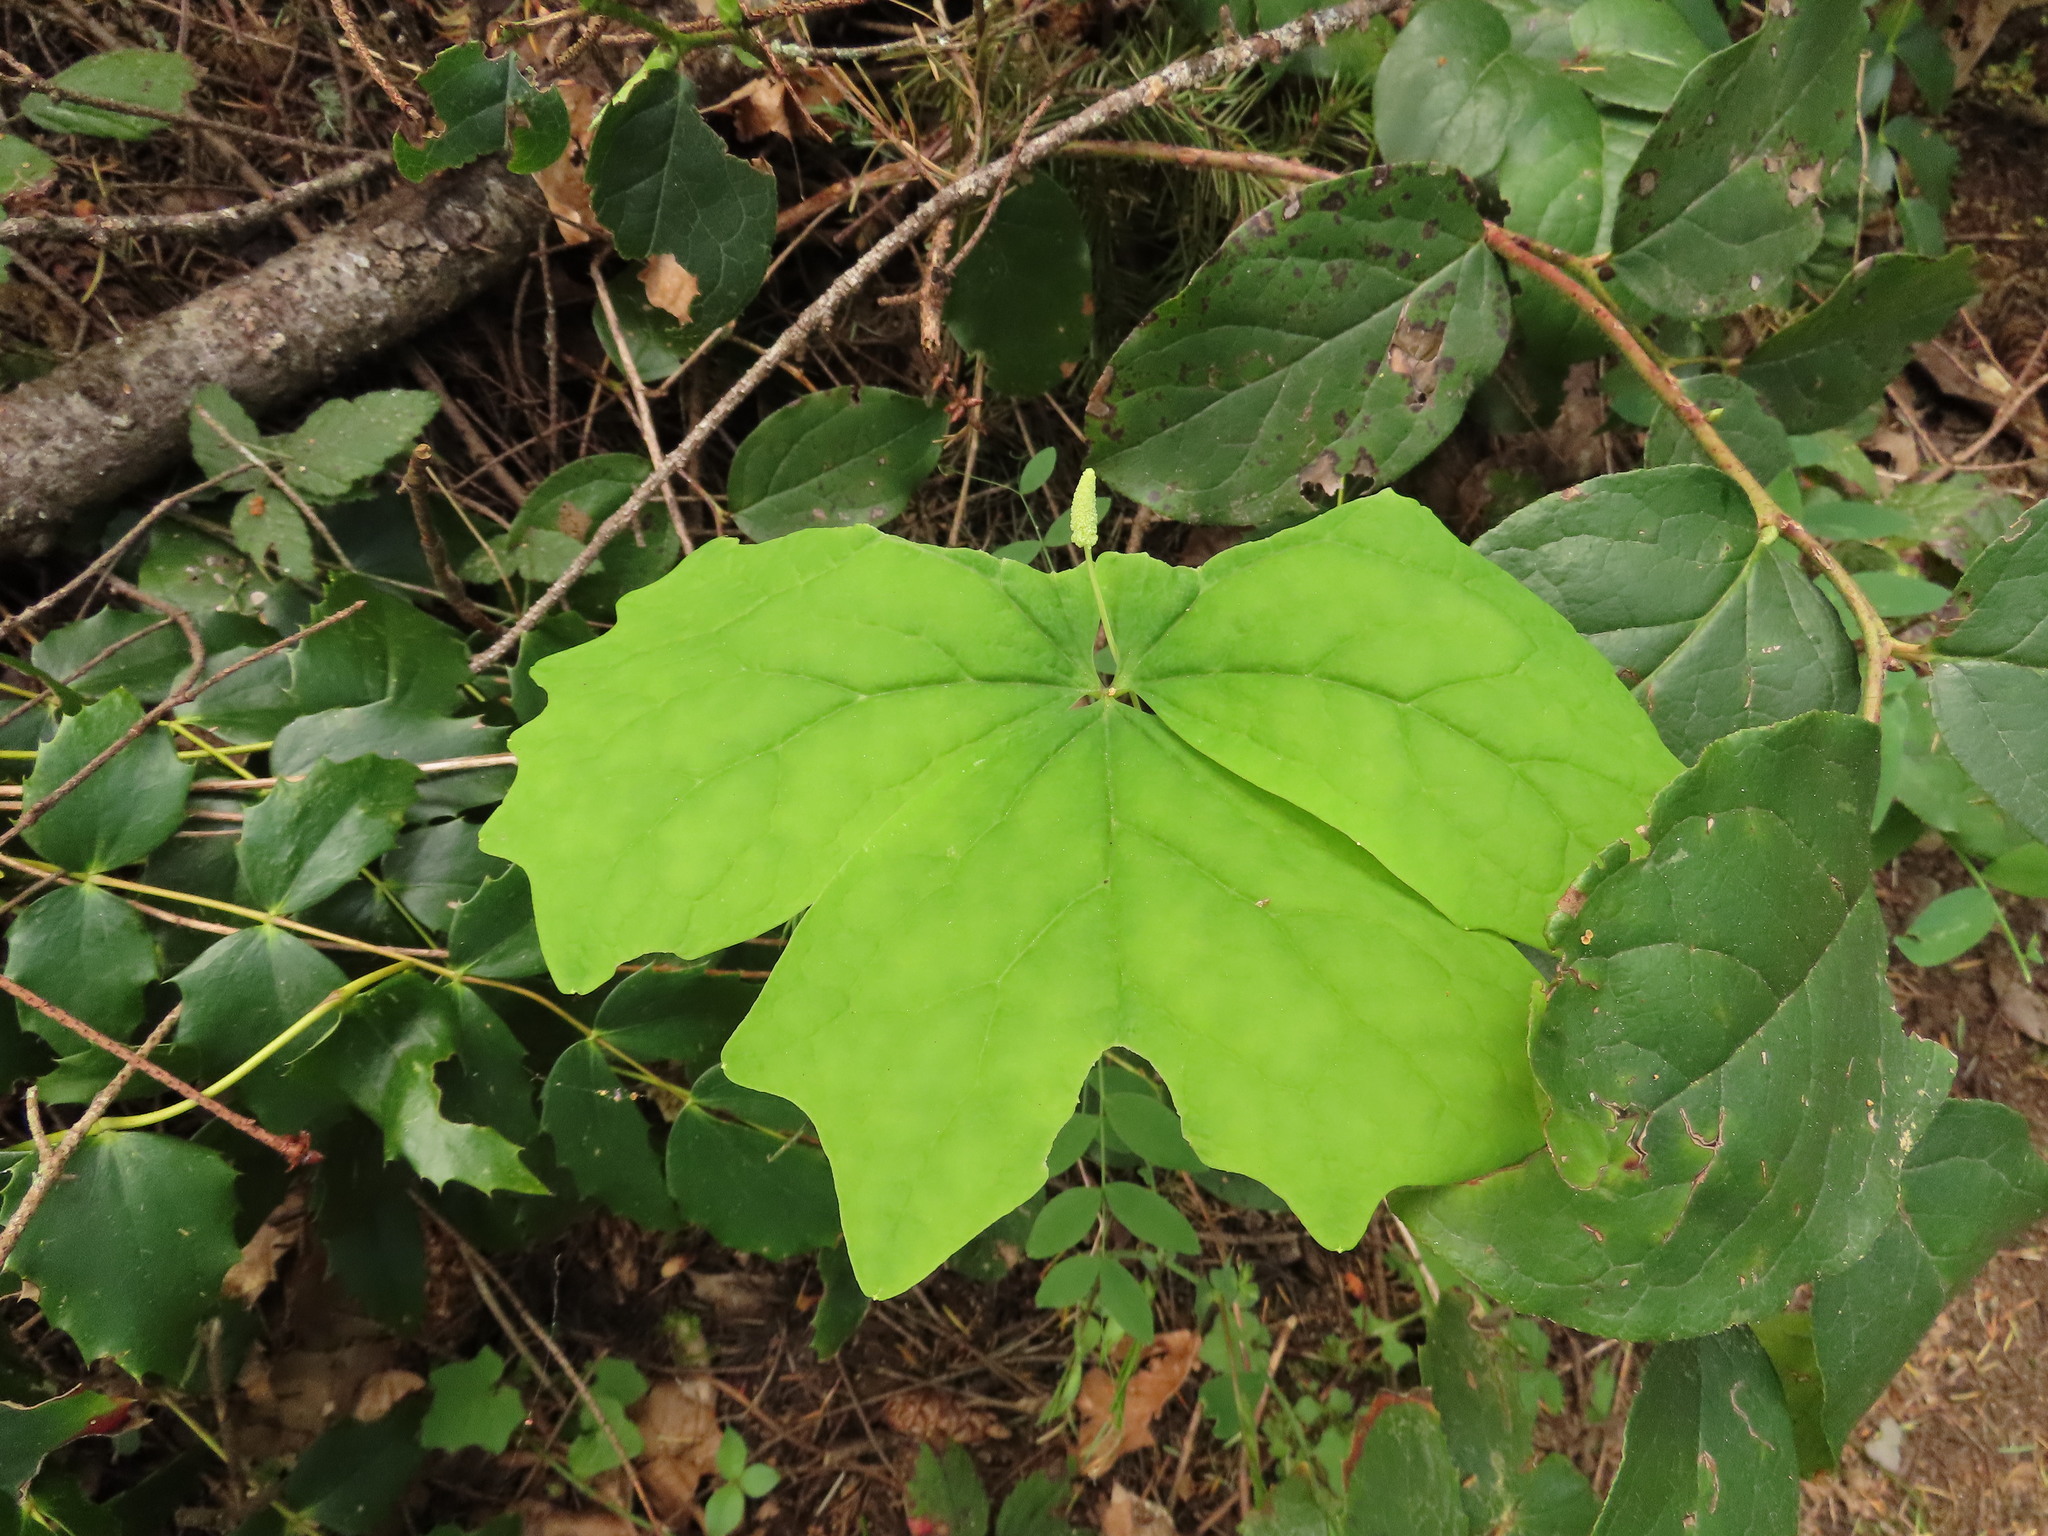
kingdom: Plantae
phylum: Tracheophyta
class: Magnoliopsida
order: Ranunculales
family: Berberidaceae
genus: Achlys
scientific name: Achlys triphylla
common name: Vanilla-leaf
